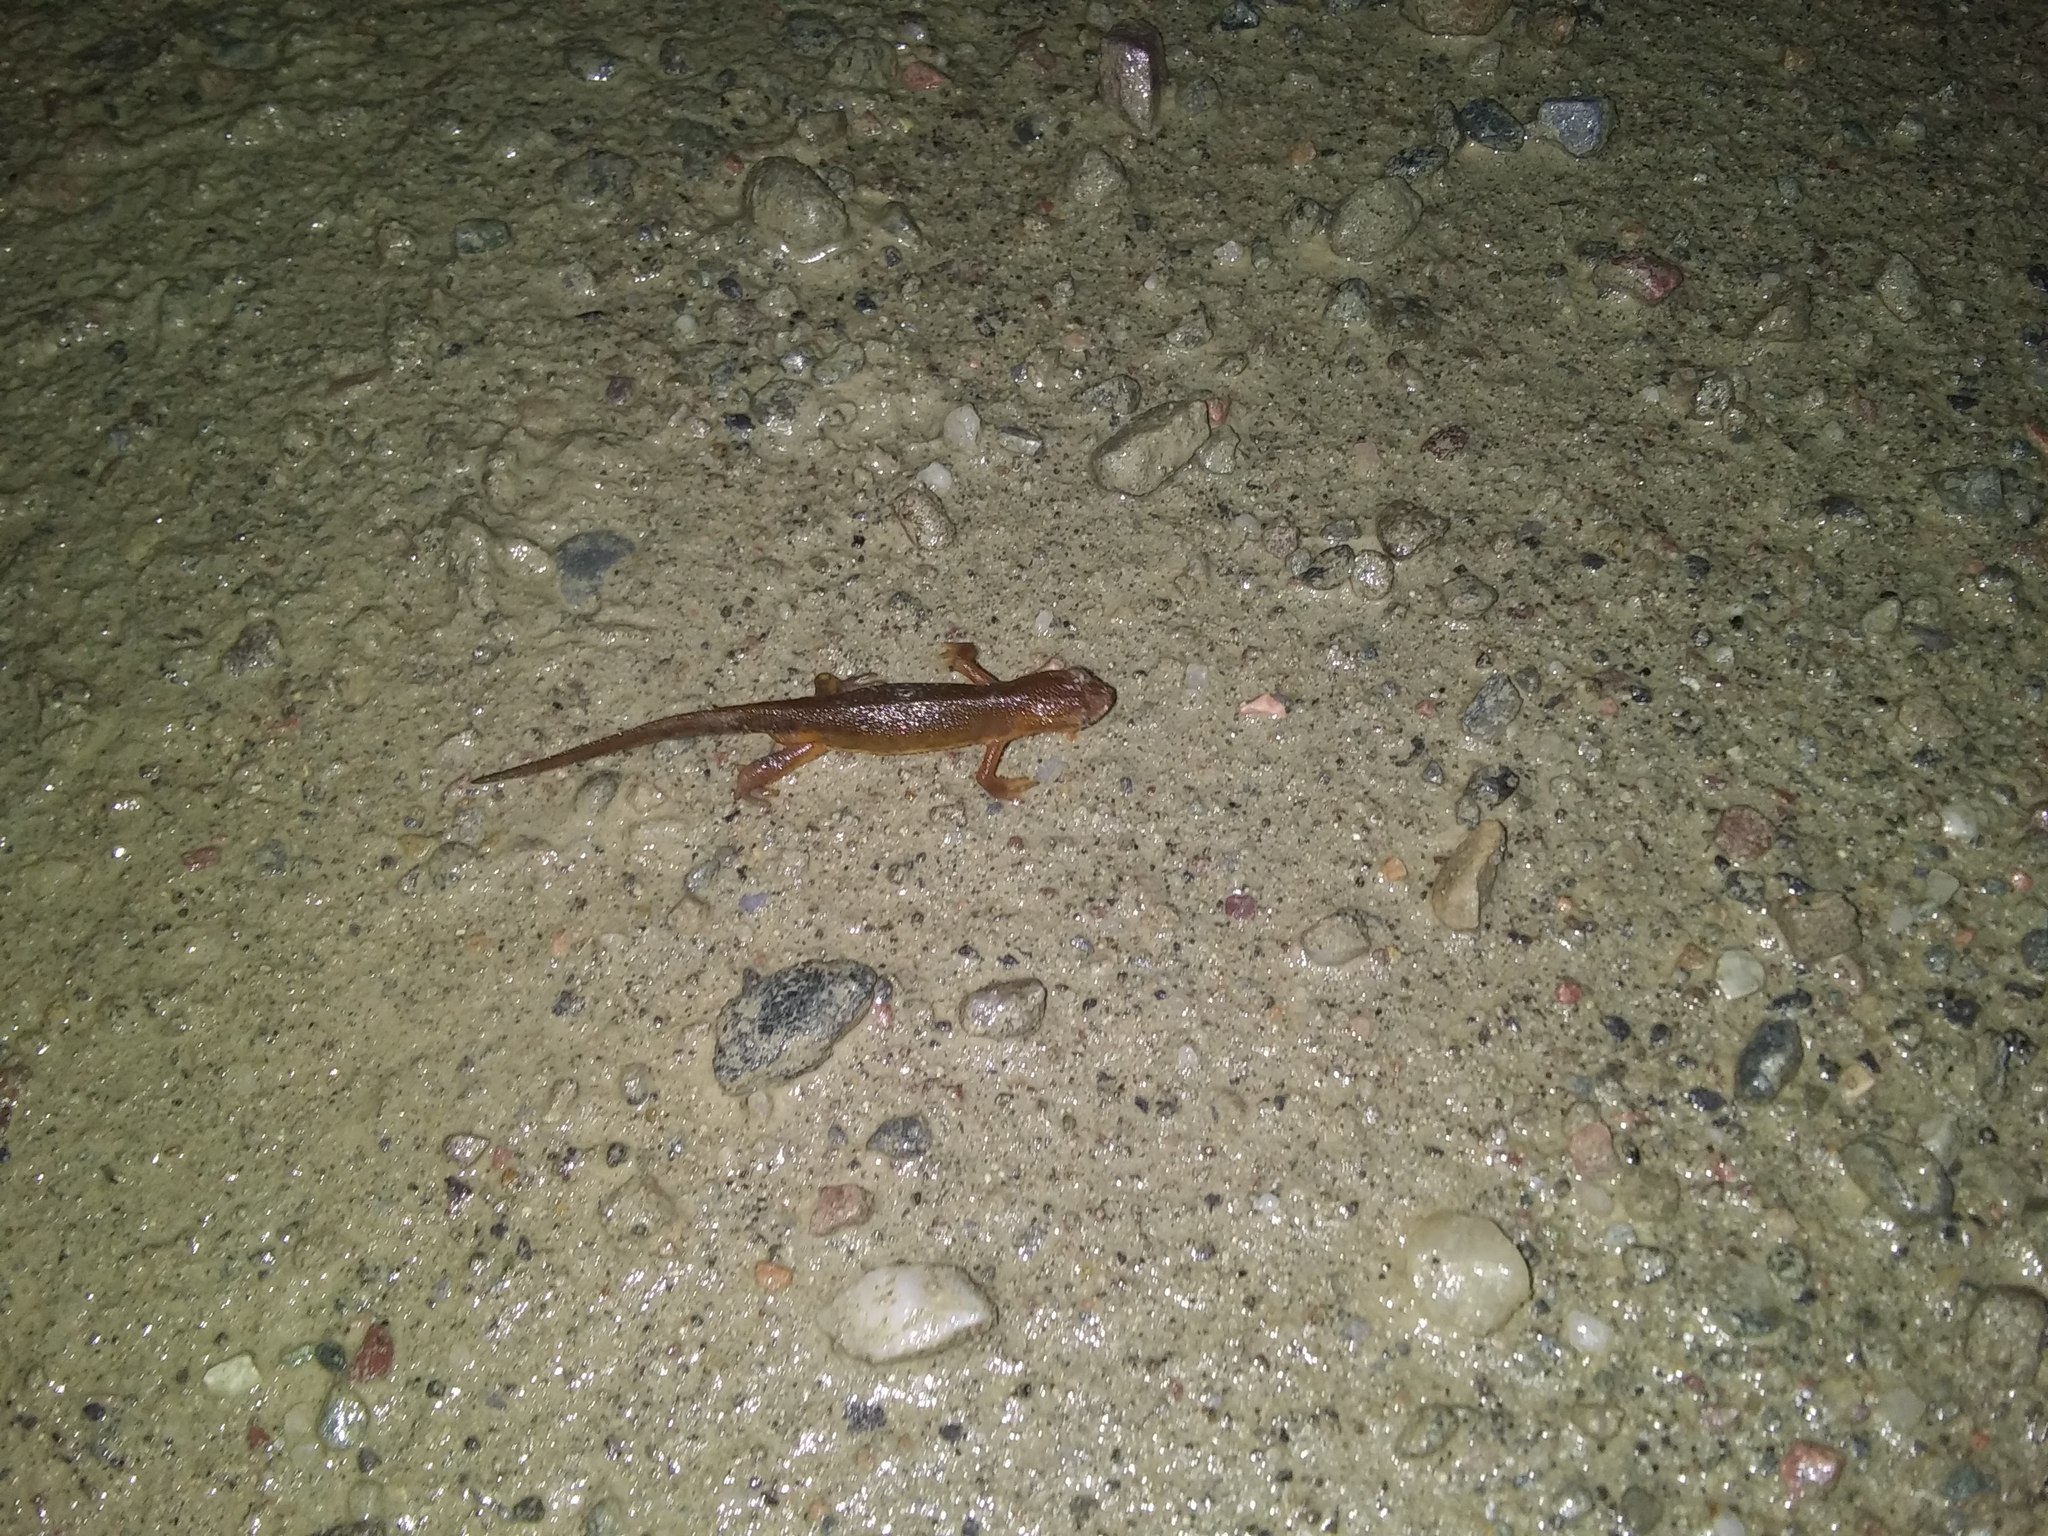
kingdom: Animalia
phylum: Chordata
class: Amphibia
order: Caudata
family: Salamandridae
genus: Notophthalmus
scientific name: Notophthalmus viridescens
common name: Eastern newt
